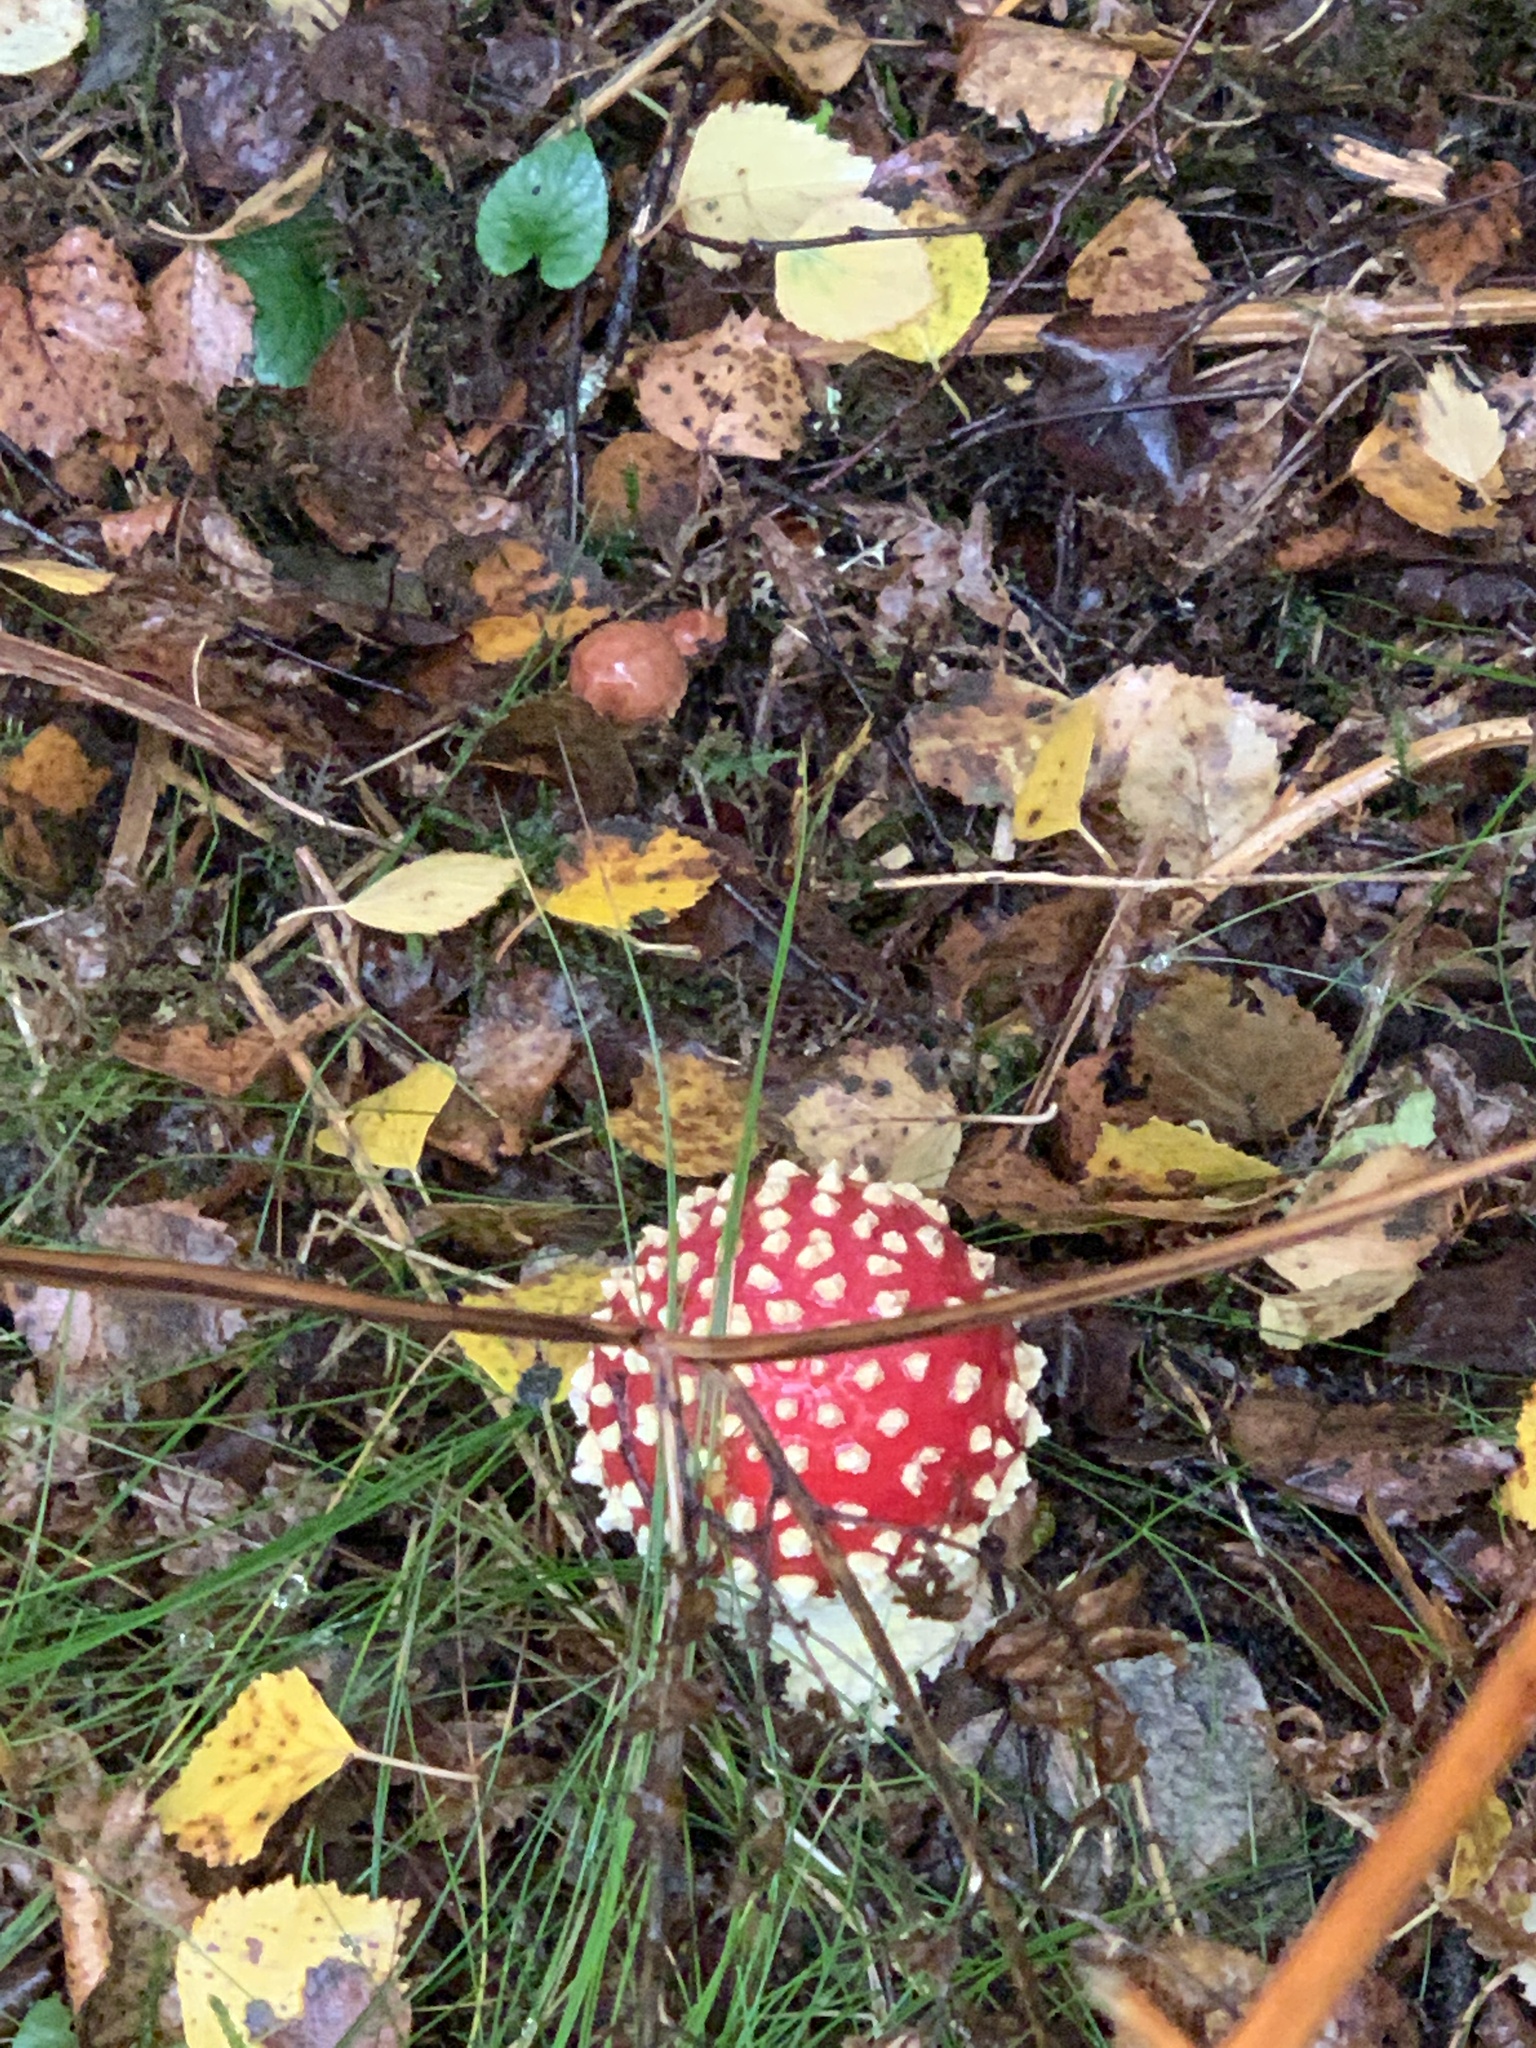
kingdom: Fungi
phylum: Basidiomycota
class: Agaricomycetes
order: Agaricales
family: Amanitaceae
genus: Amanita
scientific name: Amanita muscaria
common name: Fly agaric
